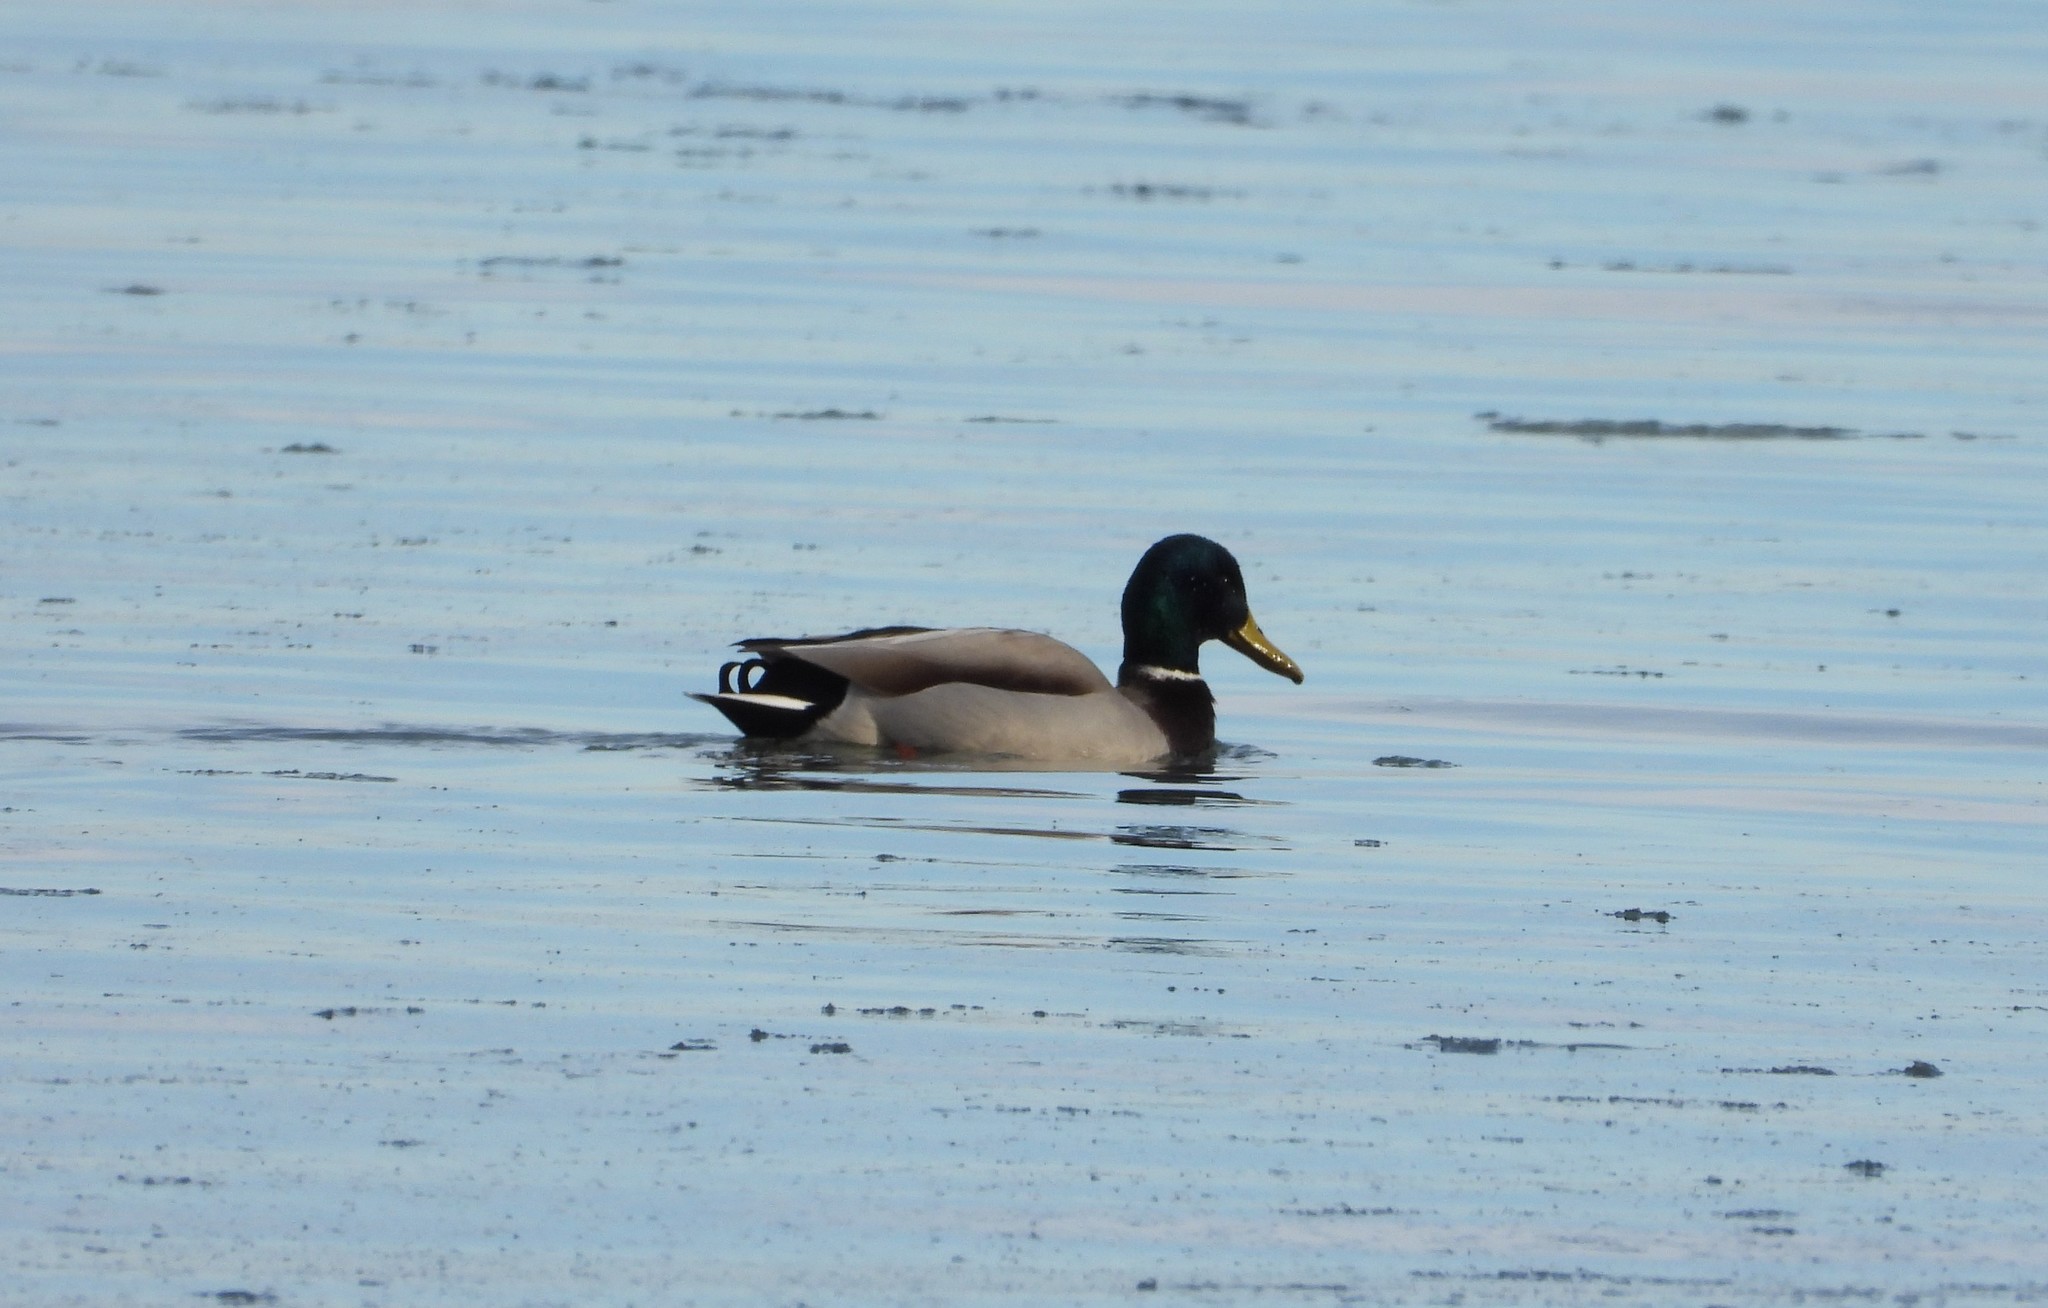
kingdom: Animalia
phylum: Chordata
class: Aves
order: Anseriformes
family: Anatidae
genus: Anas
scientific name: Anas platyrhynchos
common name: Mallard
